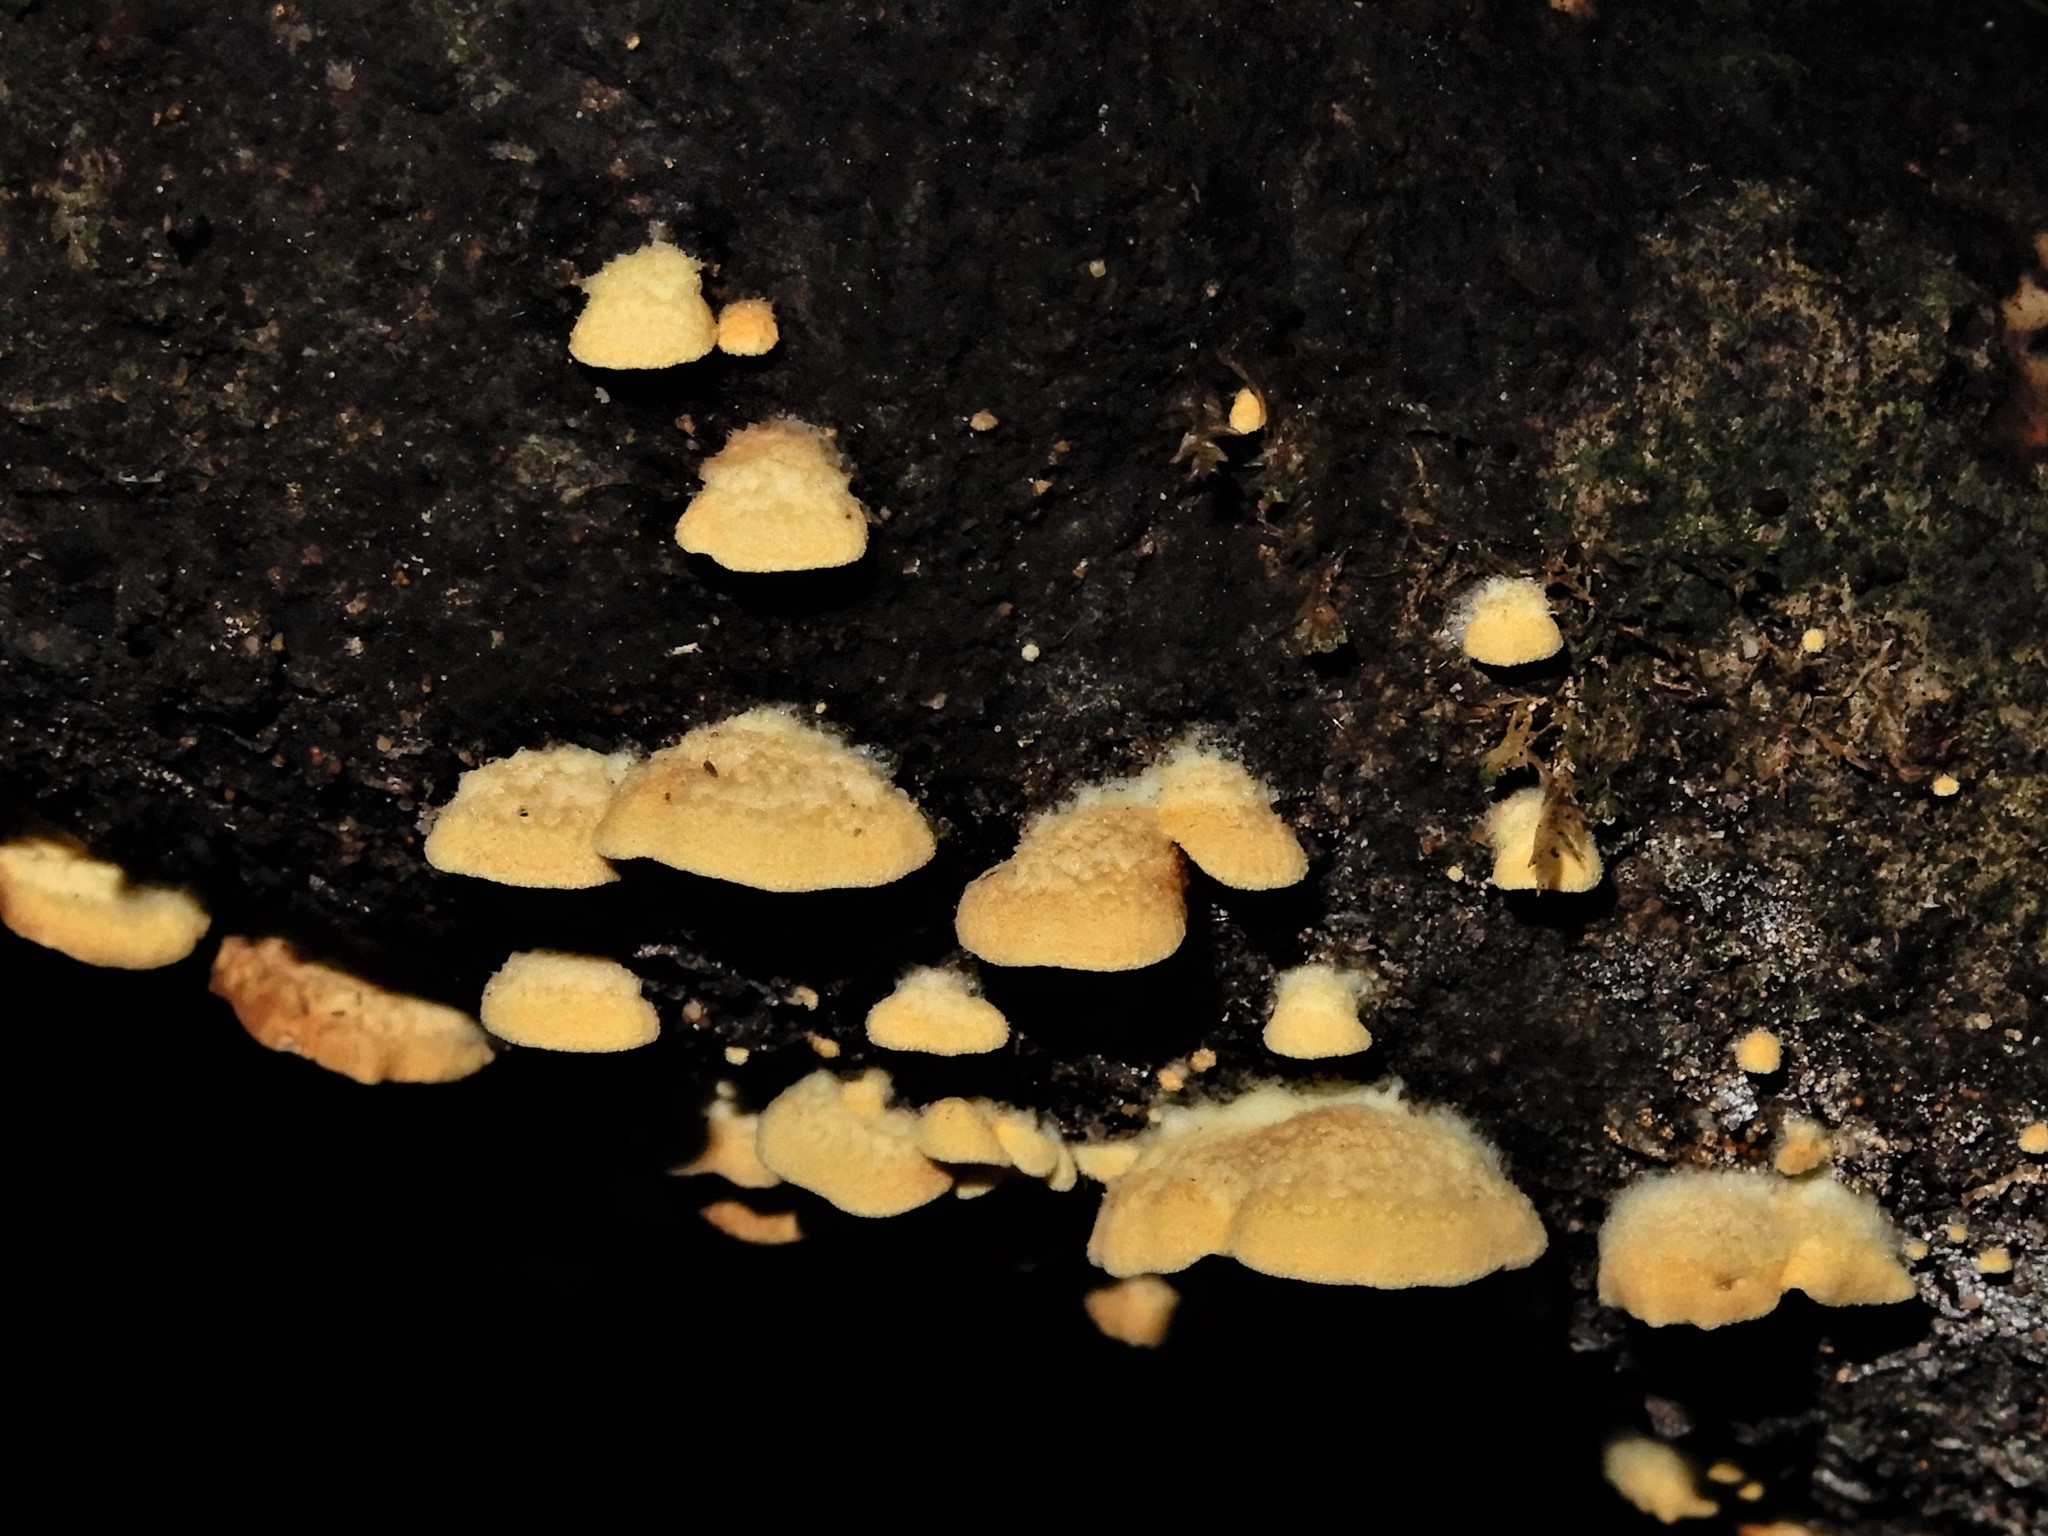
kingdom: Fungi
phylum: Basidiomycota
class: Agaricomycetes
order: Agaricales
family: Crepidotaceae
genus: Crepidotus
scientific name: Crepidotus parietalis
